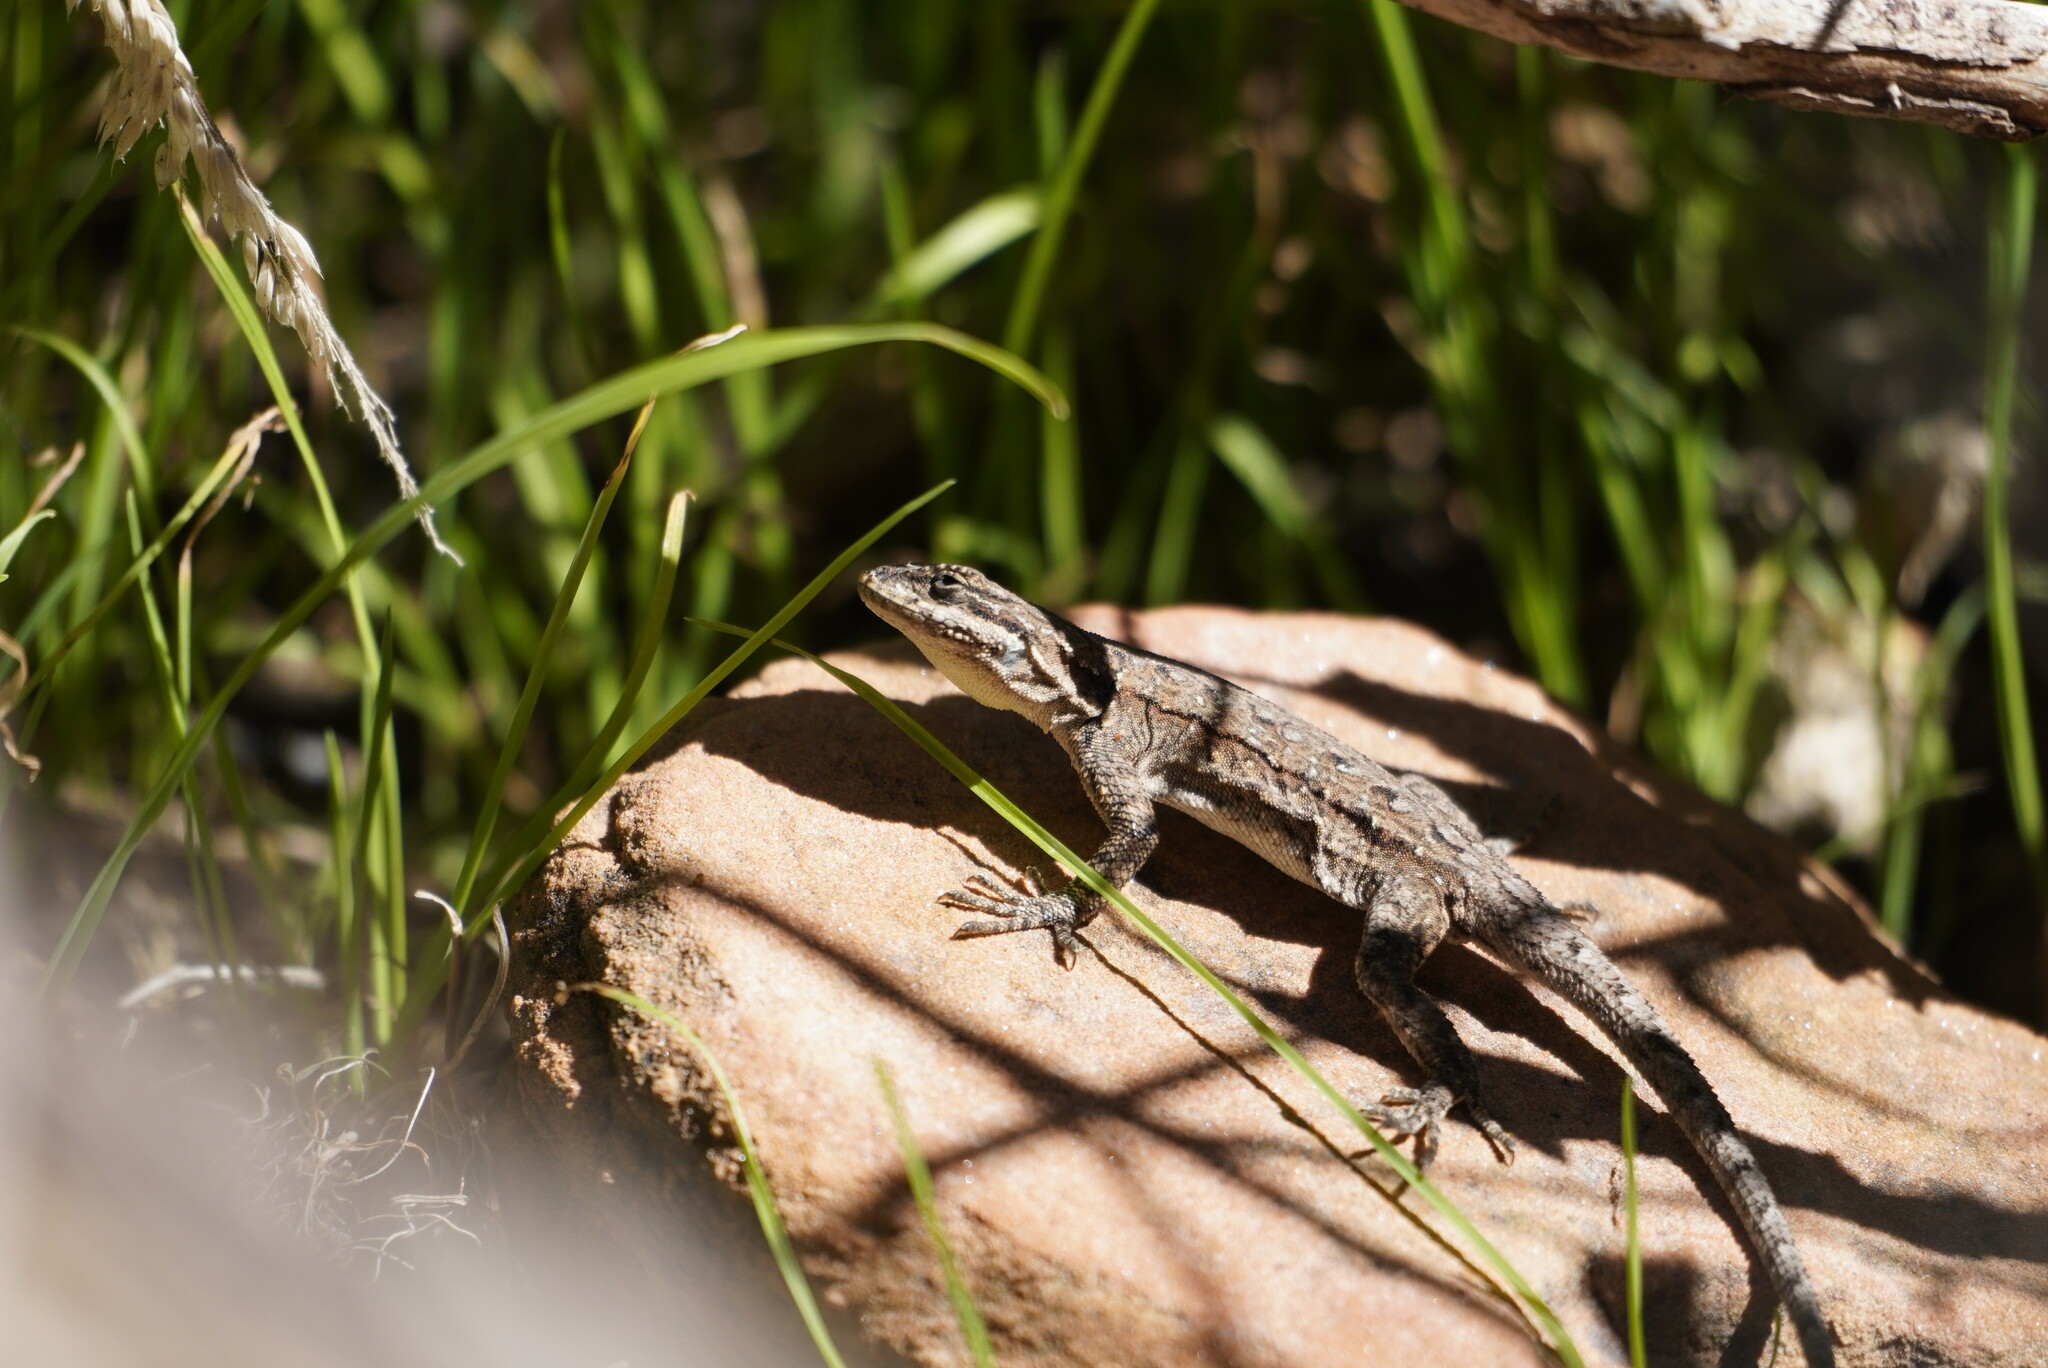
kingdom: Animalia
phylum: Chordata
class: Squamata
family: Phrynosomatidae
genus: Urosaurus
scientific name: Urosaurus ornatus
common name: Ornate tree lizard
